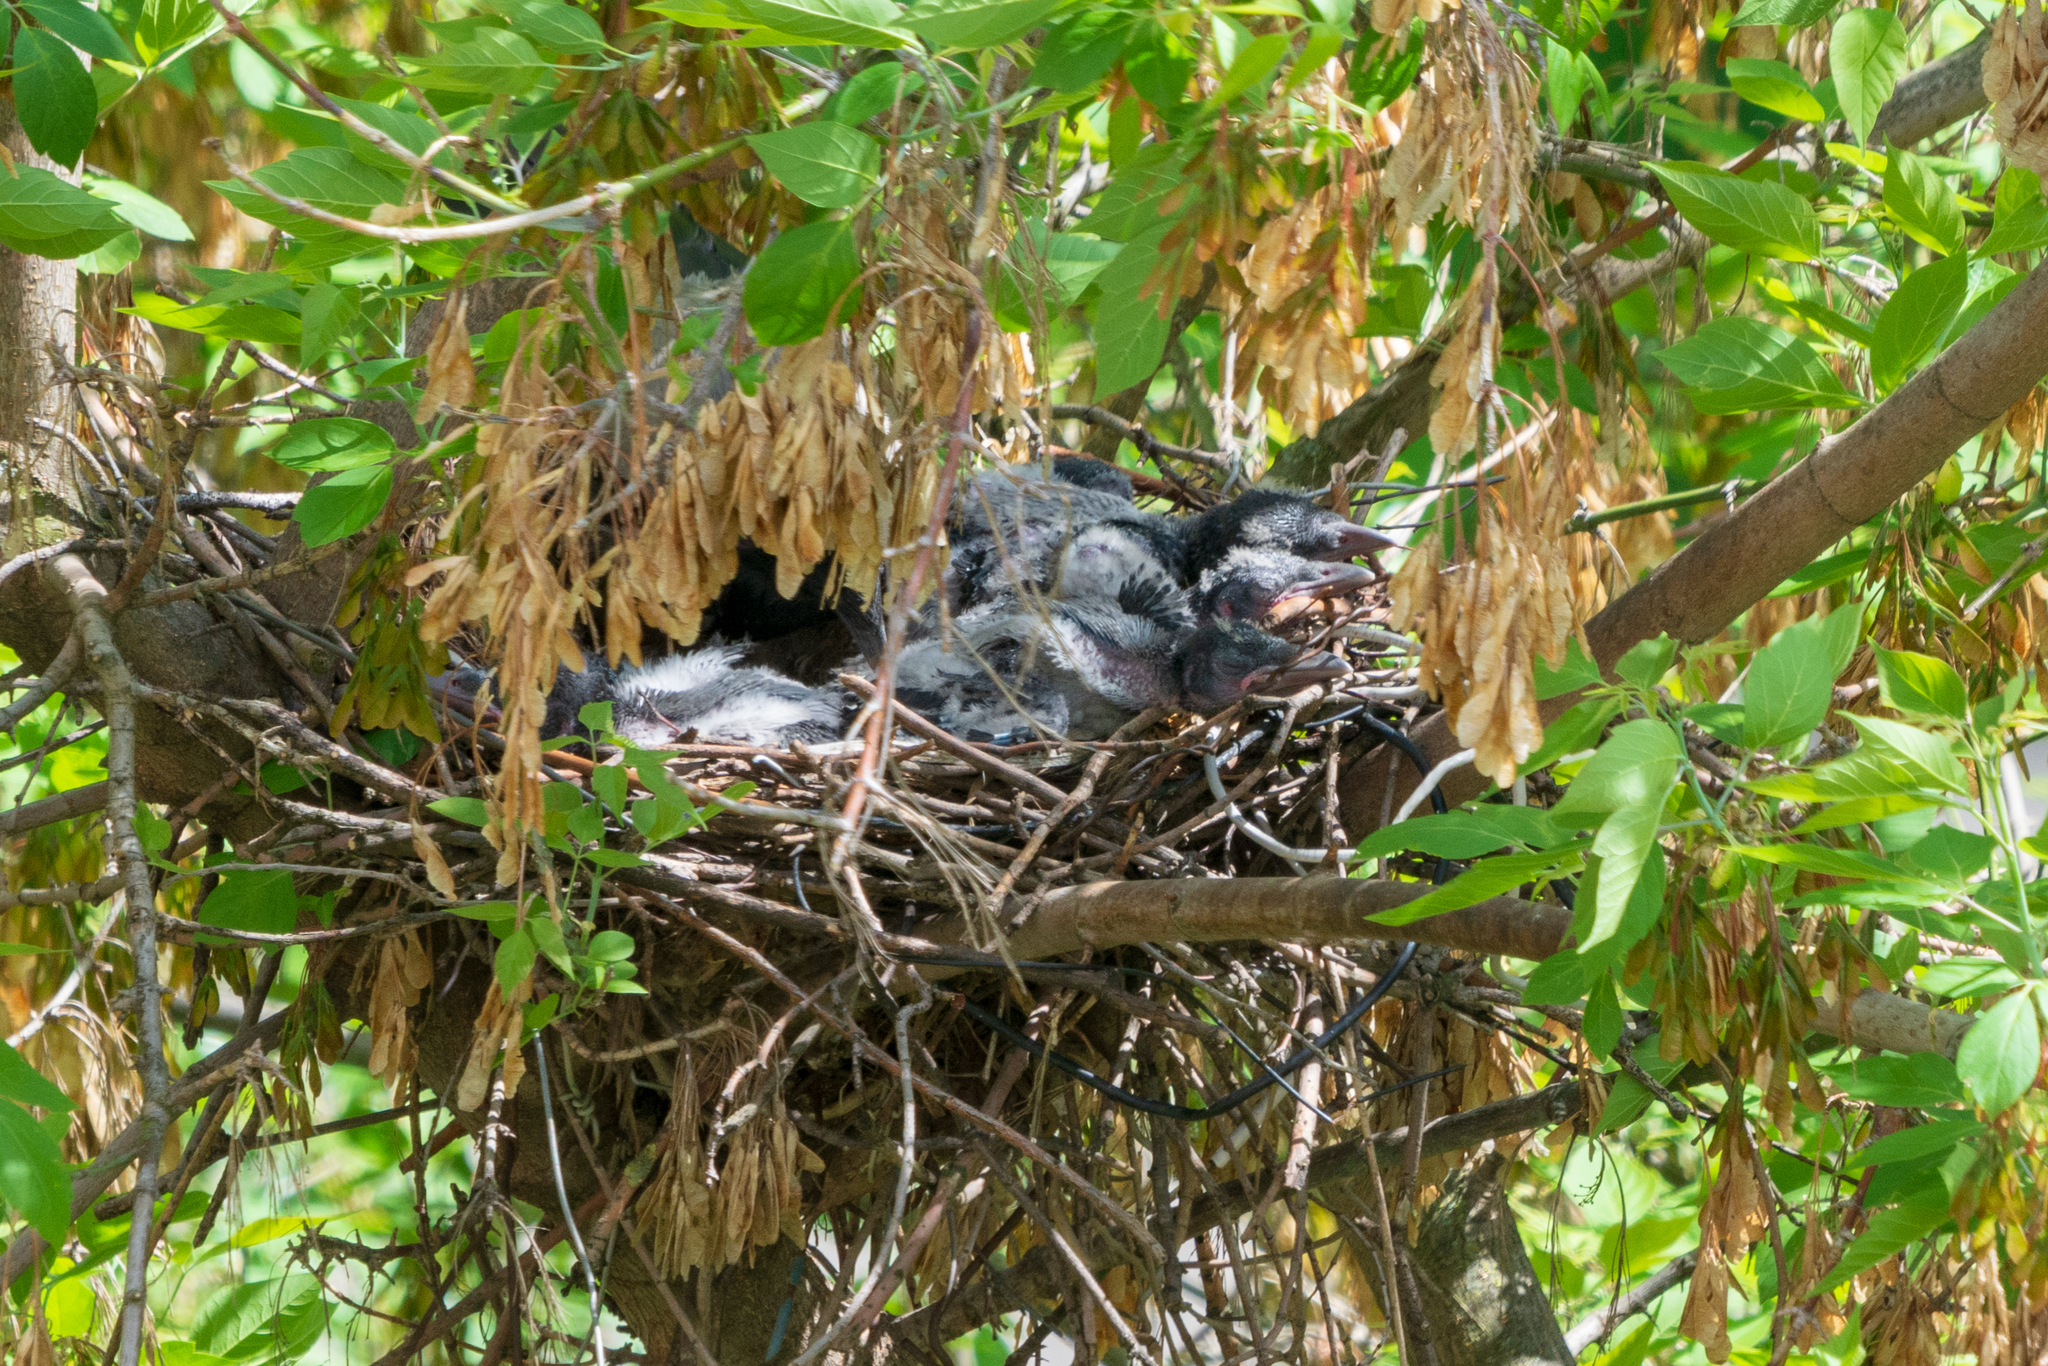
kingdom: Animalia
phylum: Chordata
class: Aves
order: Passeriformes
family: Corvidae
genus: Corvus
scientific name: Corvus cornix
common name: Hooded crow
